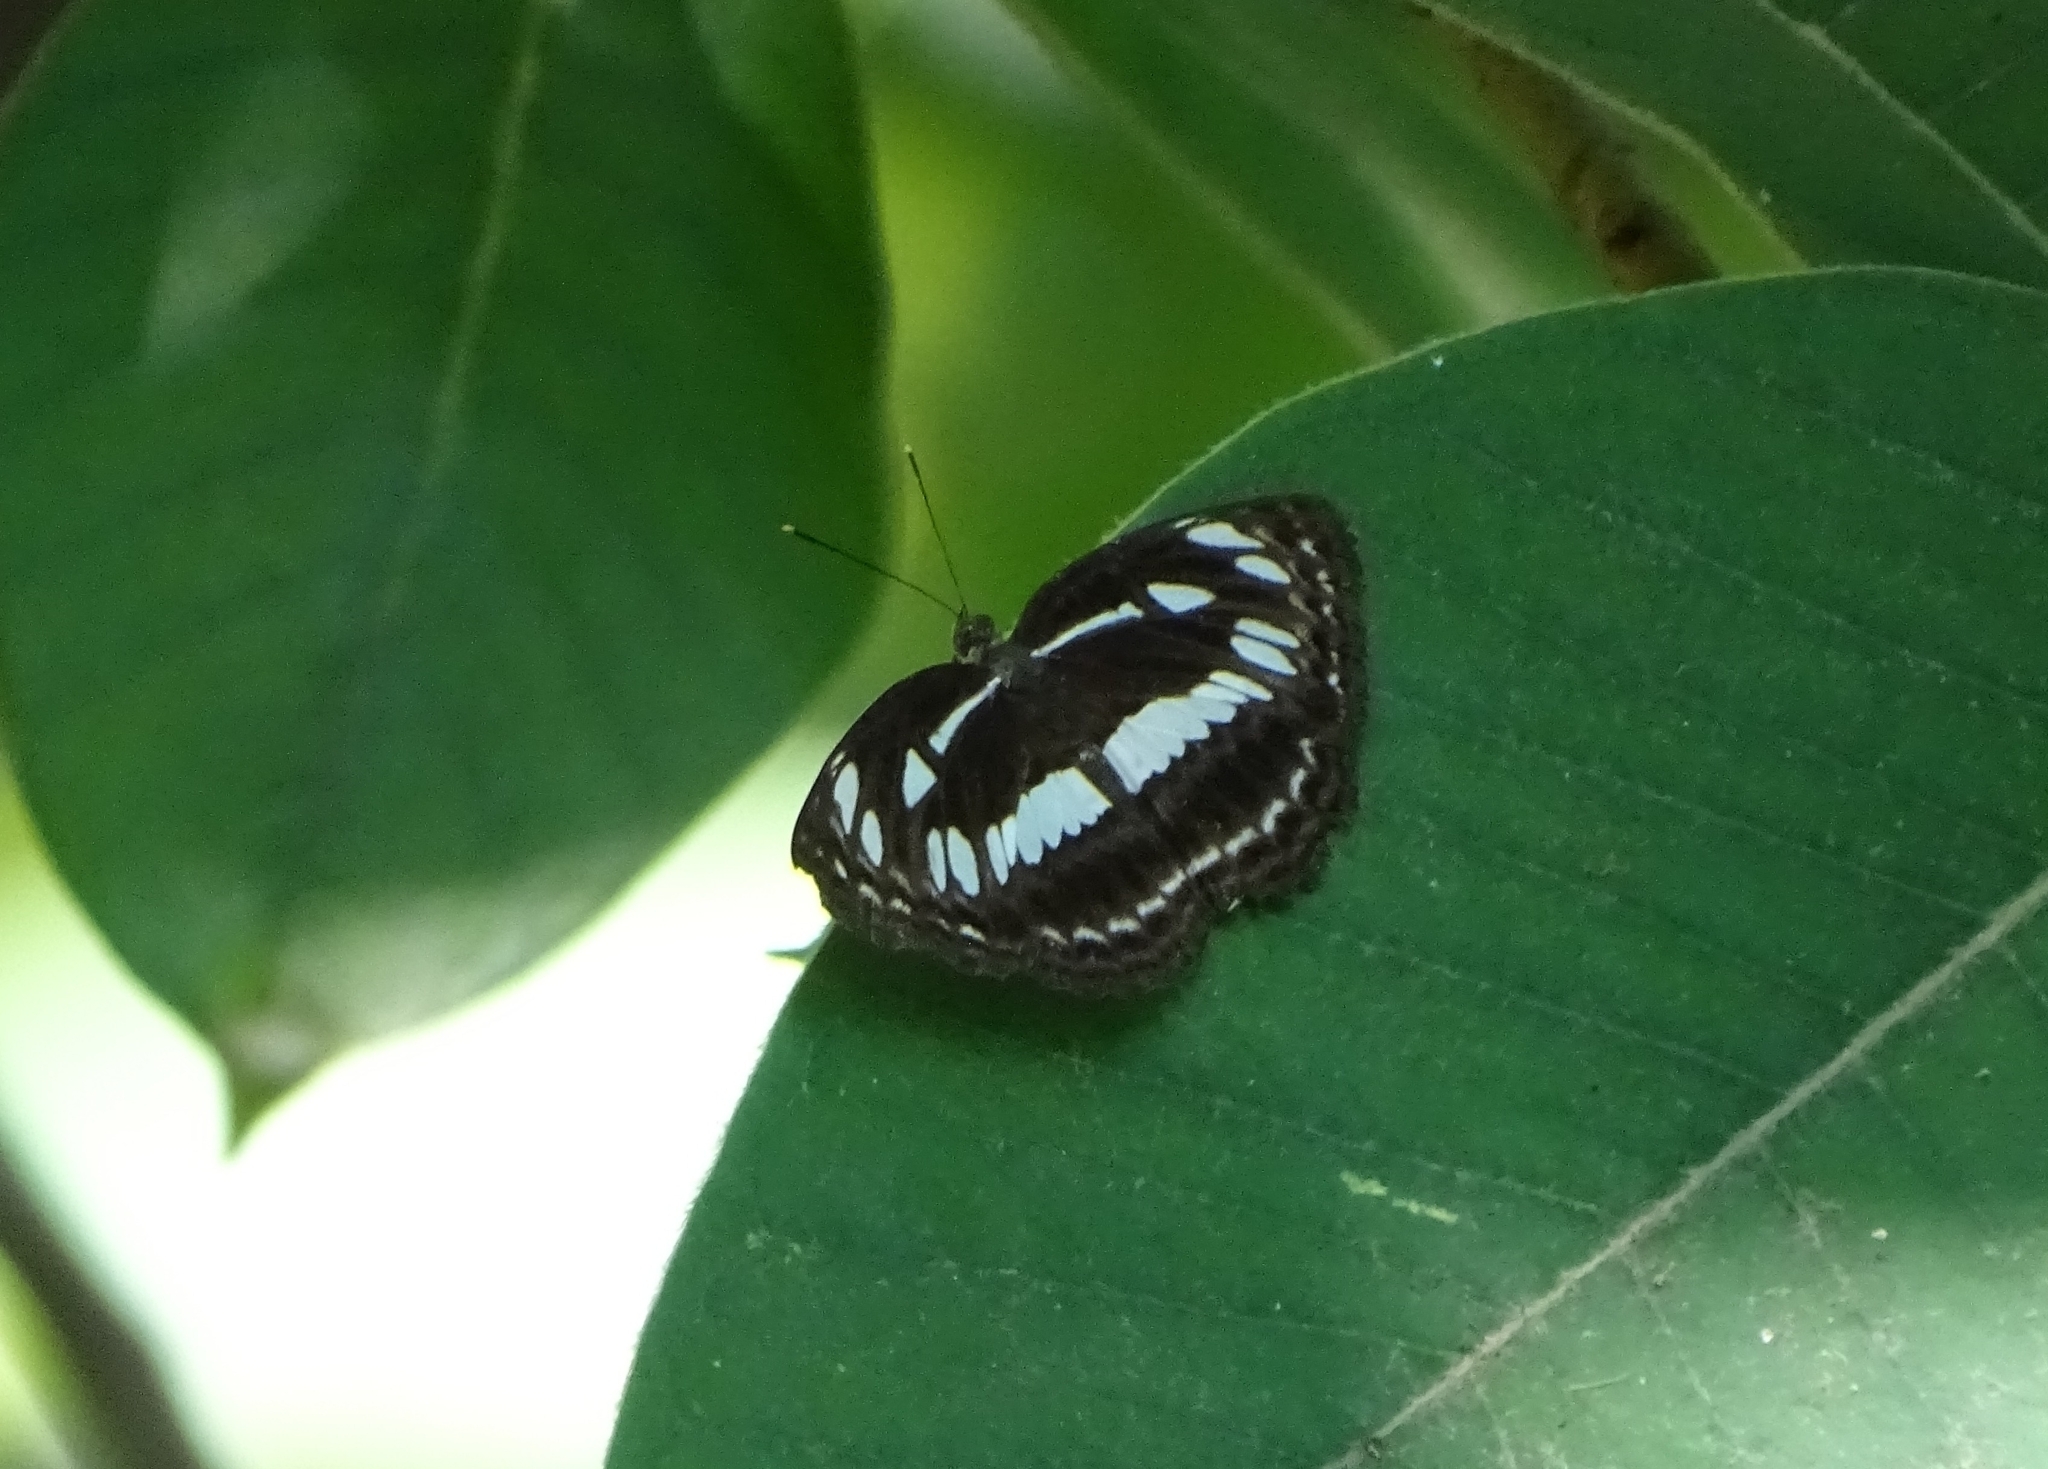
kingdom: Animalia
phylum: Arthropoda
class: Insecta
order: Lepidoptera
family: Nymphalidae
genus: Neptis
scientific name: Neptis jumbah
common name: Chestnut-streaked sailer
